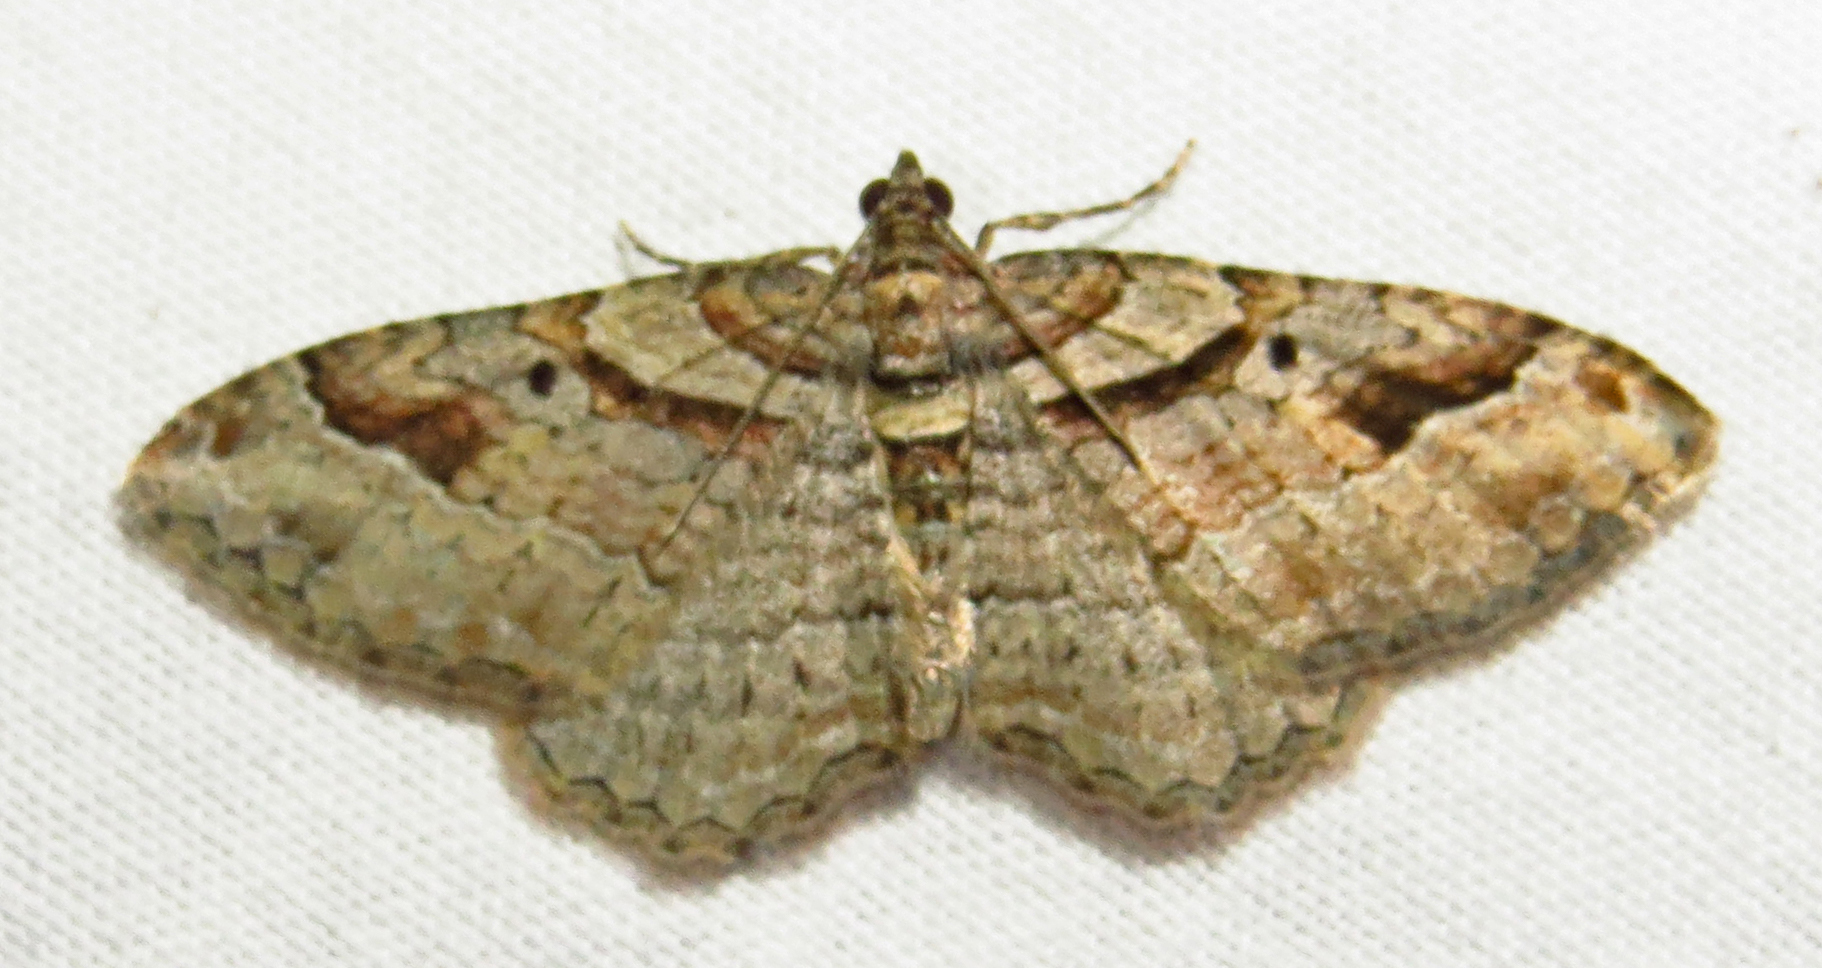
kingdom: Animalia
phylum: Arthropoda
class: Insecta
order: Lepidoptera
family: Geometridae
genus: Costaconvexa
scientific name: Costaconvexa centrostrigaria
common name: Bent-line carpet
